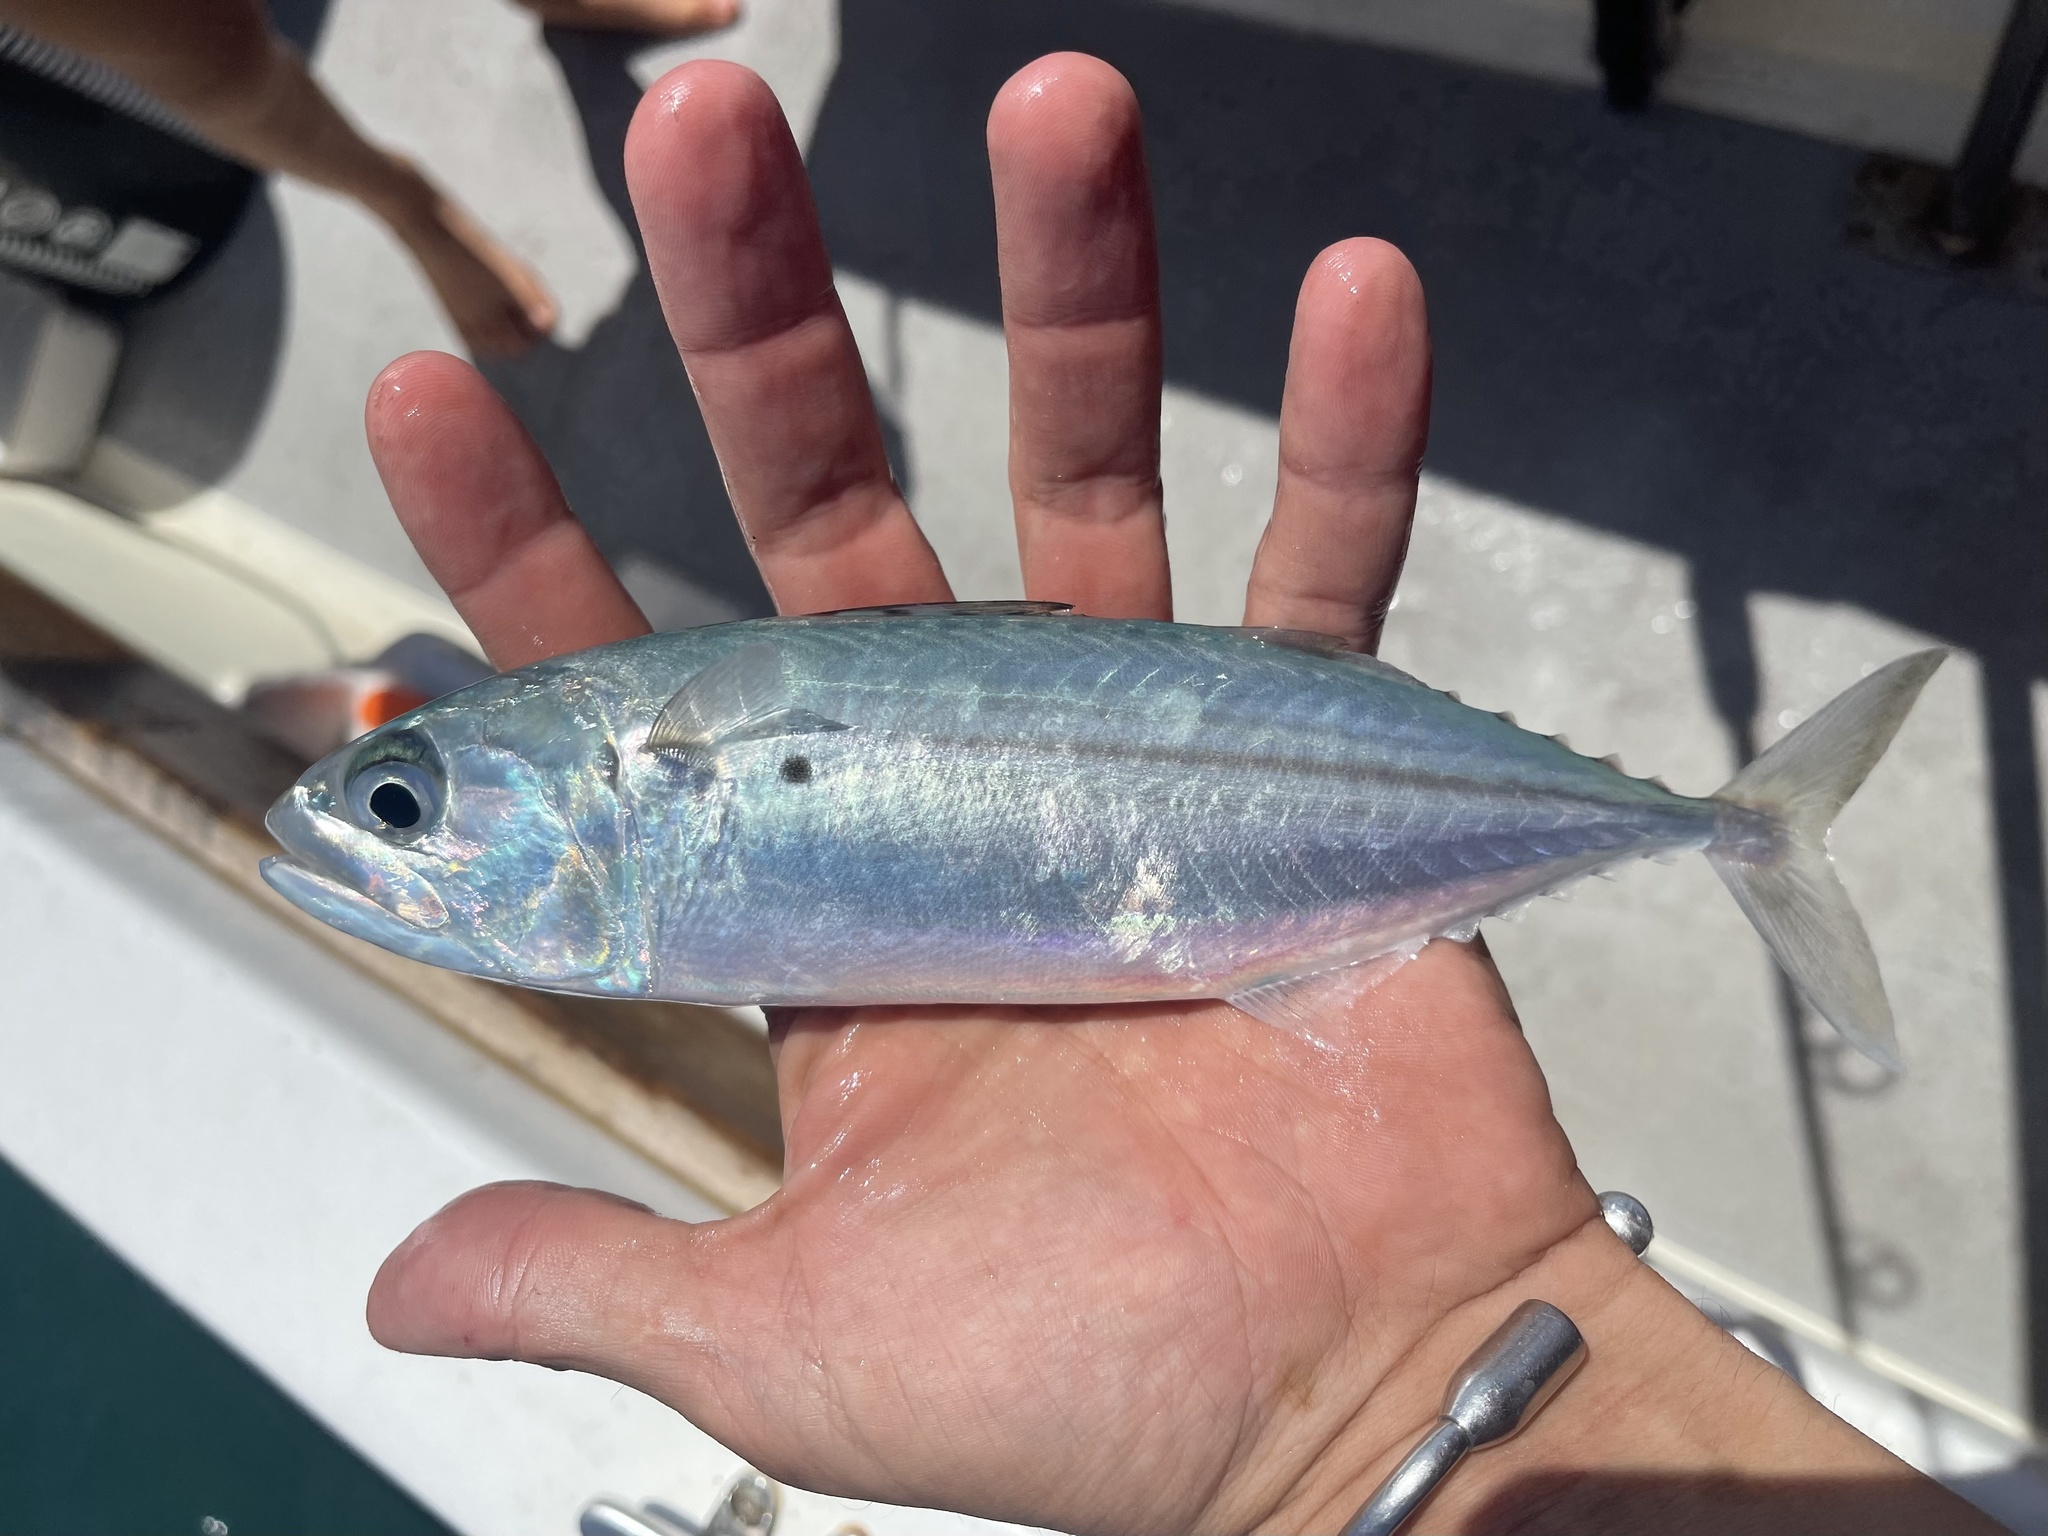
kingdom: Animalia
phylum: Chordata
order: Perciformes
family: Scombridae
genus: Rastrelliger
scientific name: Rastrelliger kanagurta
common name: Indian mackerel
